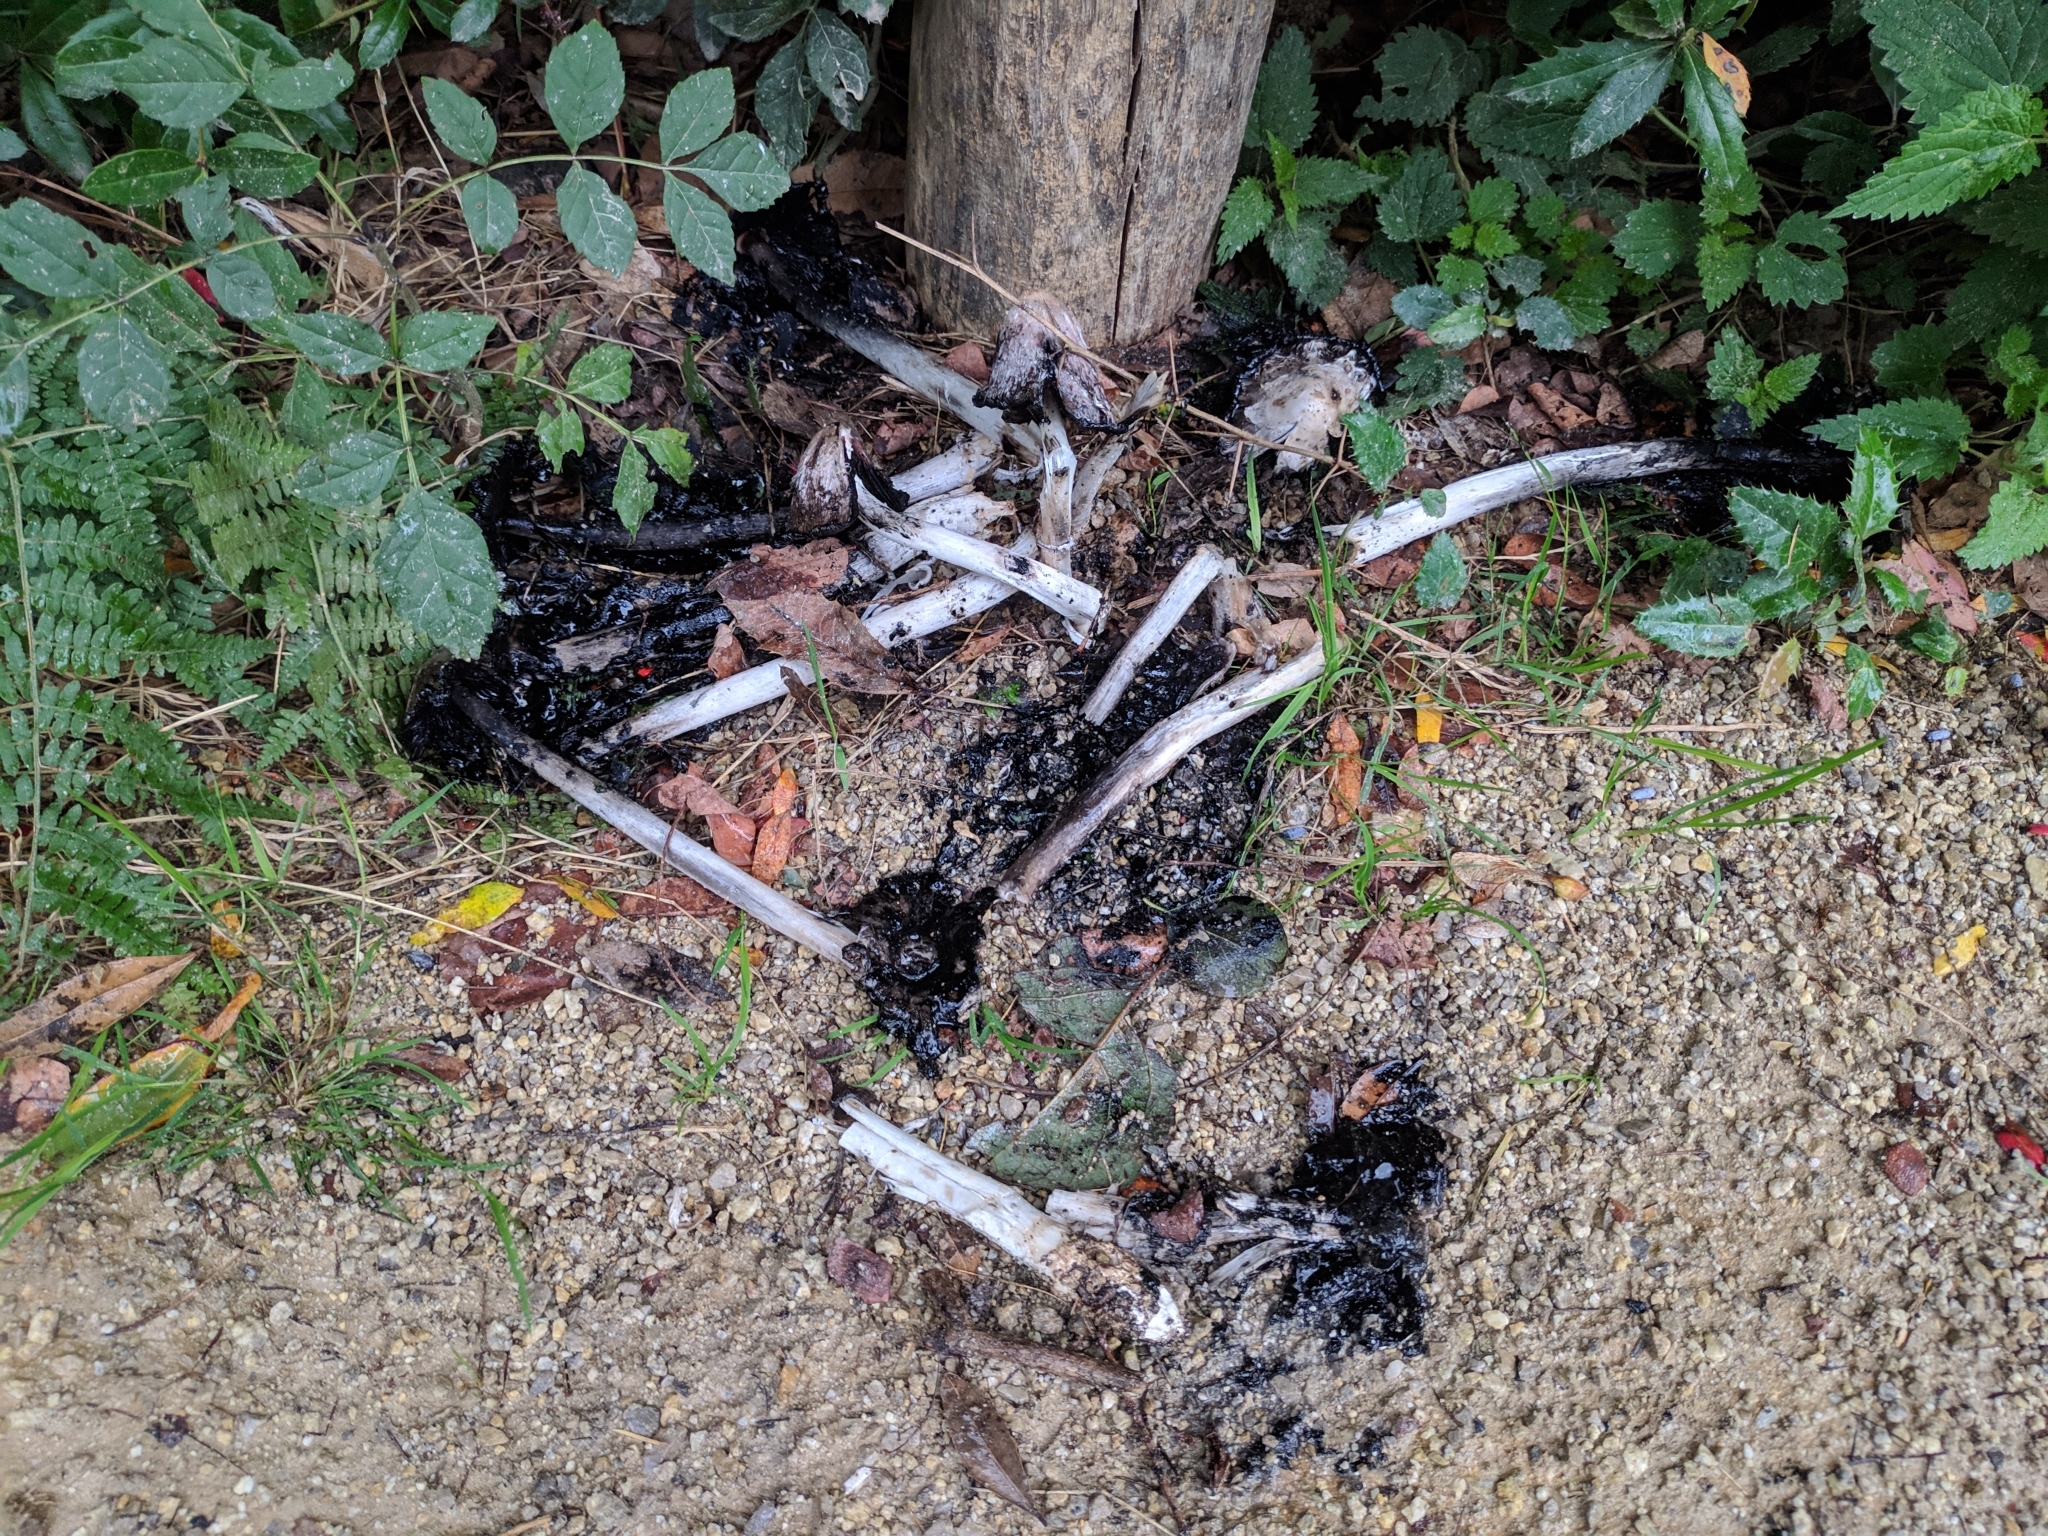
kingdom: Fungi
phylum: Basidiomycota
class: Agaricomycetes
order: Agaricales
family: Agaricaceae
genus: Coprinus
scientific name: Coprinus comatus
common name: Lawyer's wig
